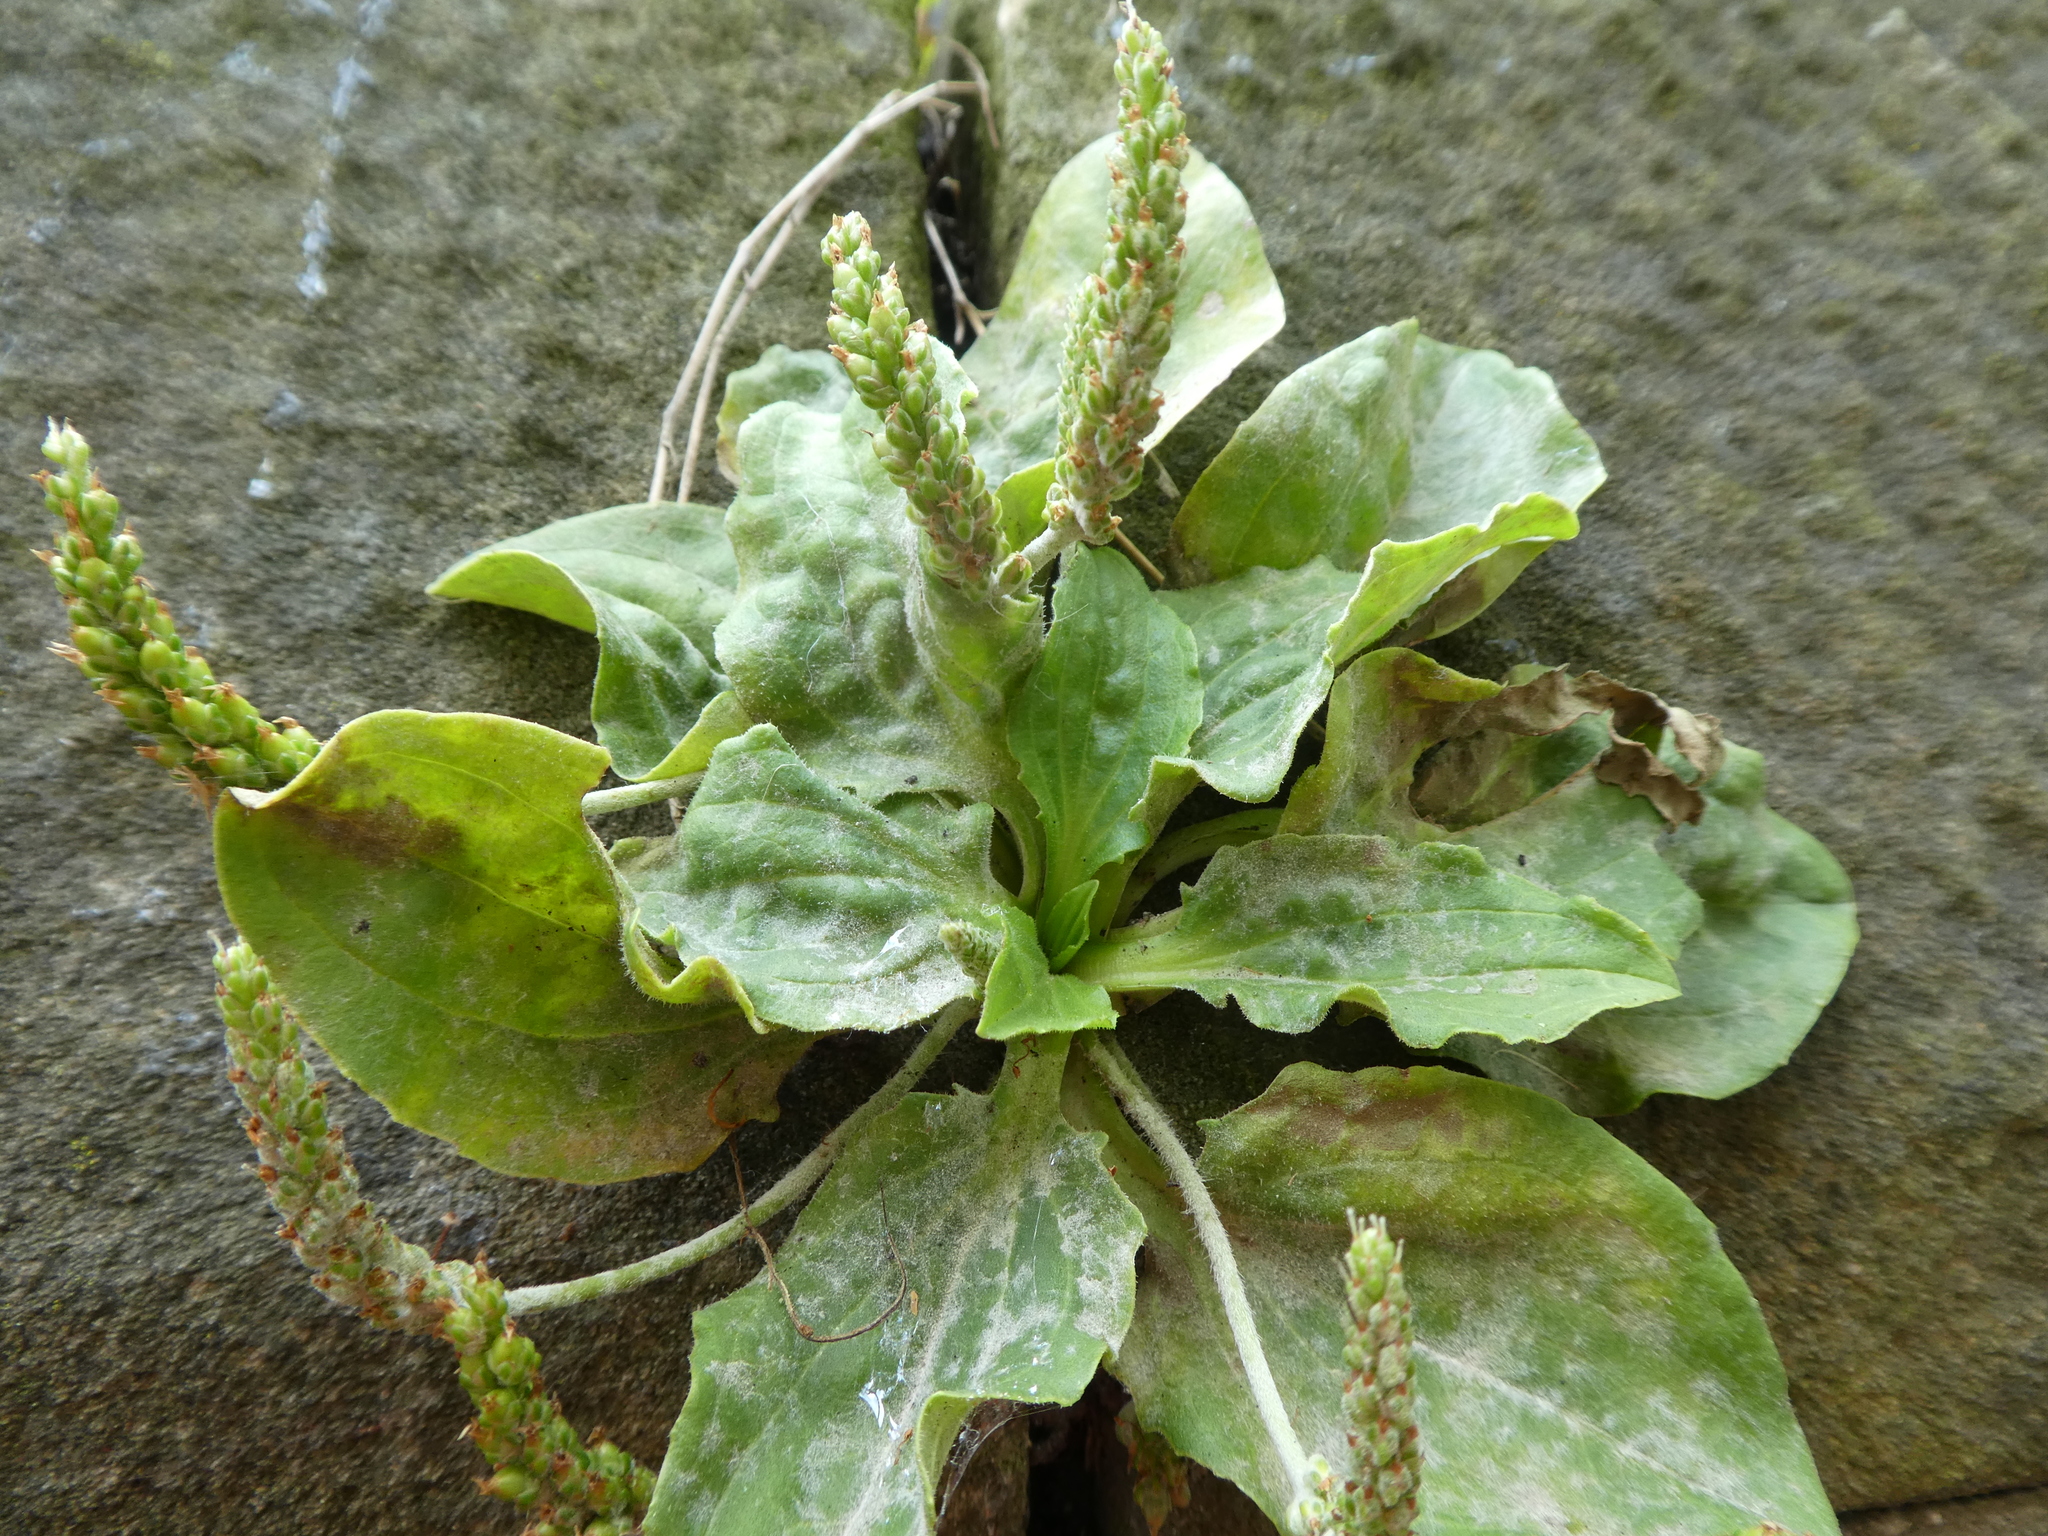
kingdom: Plantae
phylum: Tracheophyta
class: Magnoliopsida
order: Lamiales
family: Plantaginaceae
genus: Plantago
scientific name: Plantago major
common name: Common plantain
